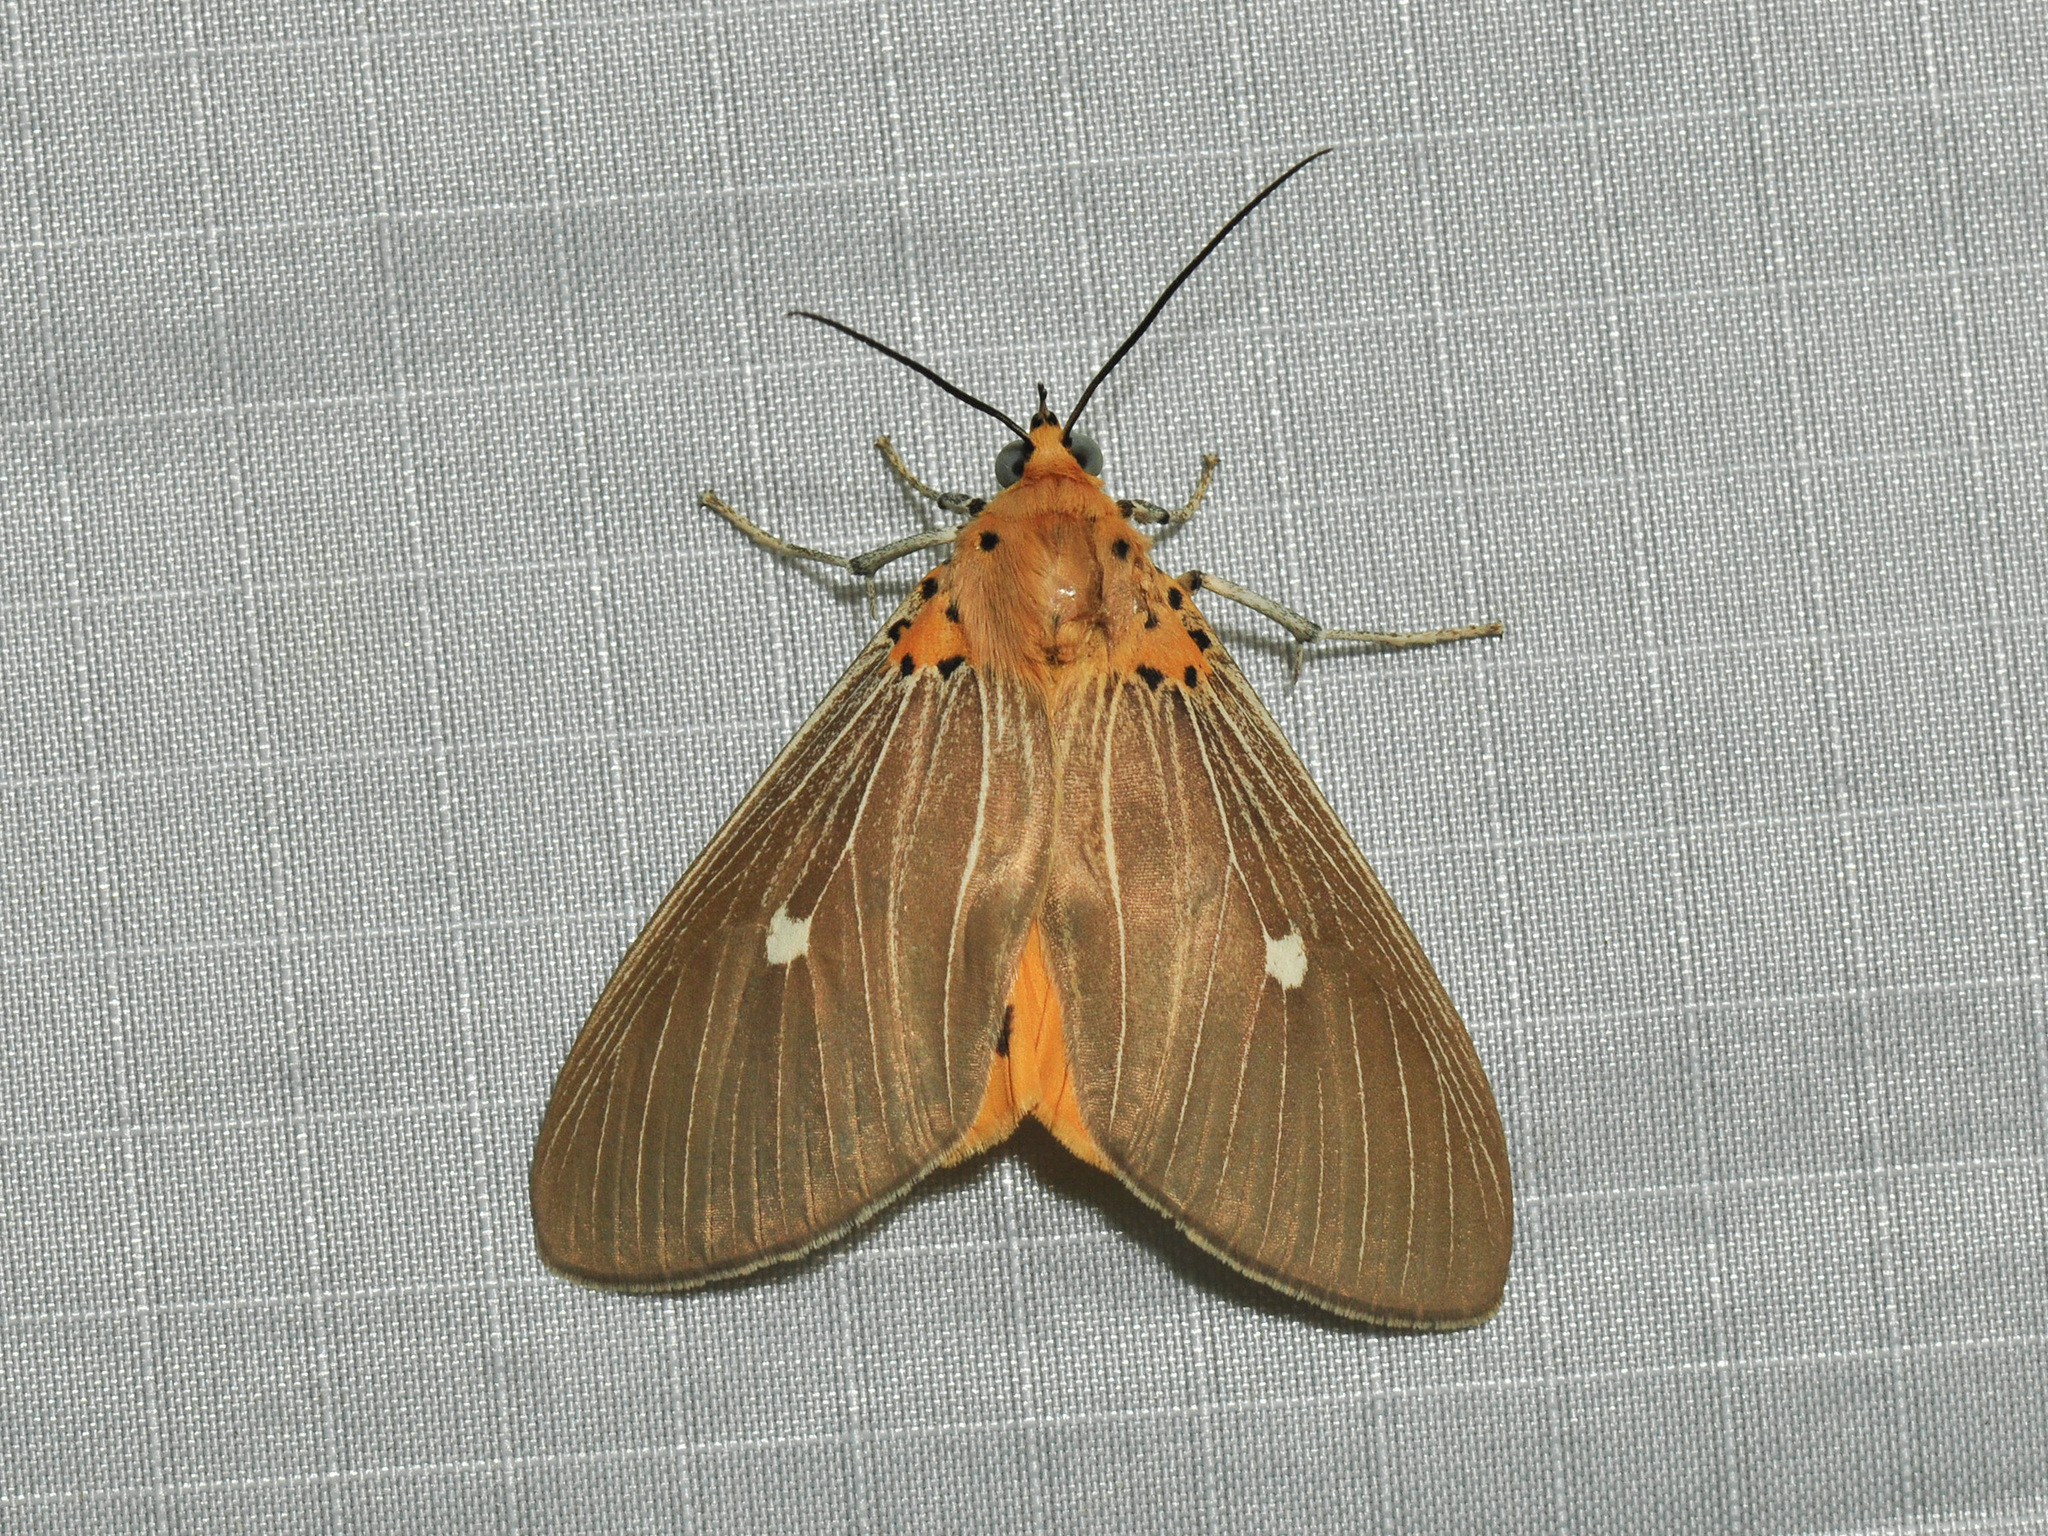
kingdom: Animalia
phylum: Arthropoda
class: Insecta
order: Lepidoptera
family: Erebidae
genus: Asota
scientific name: Asota caricae
